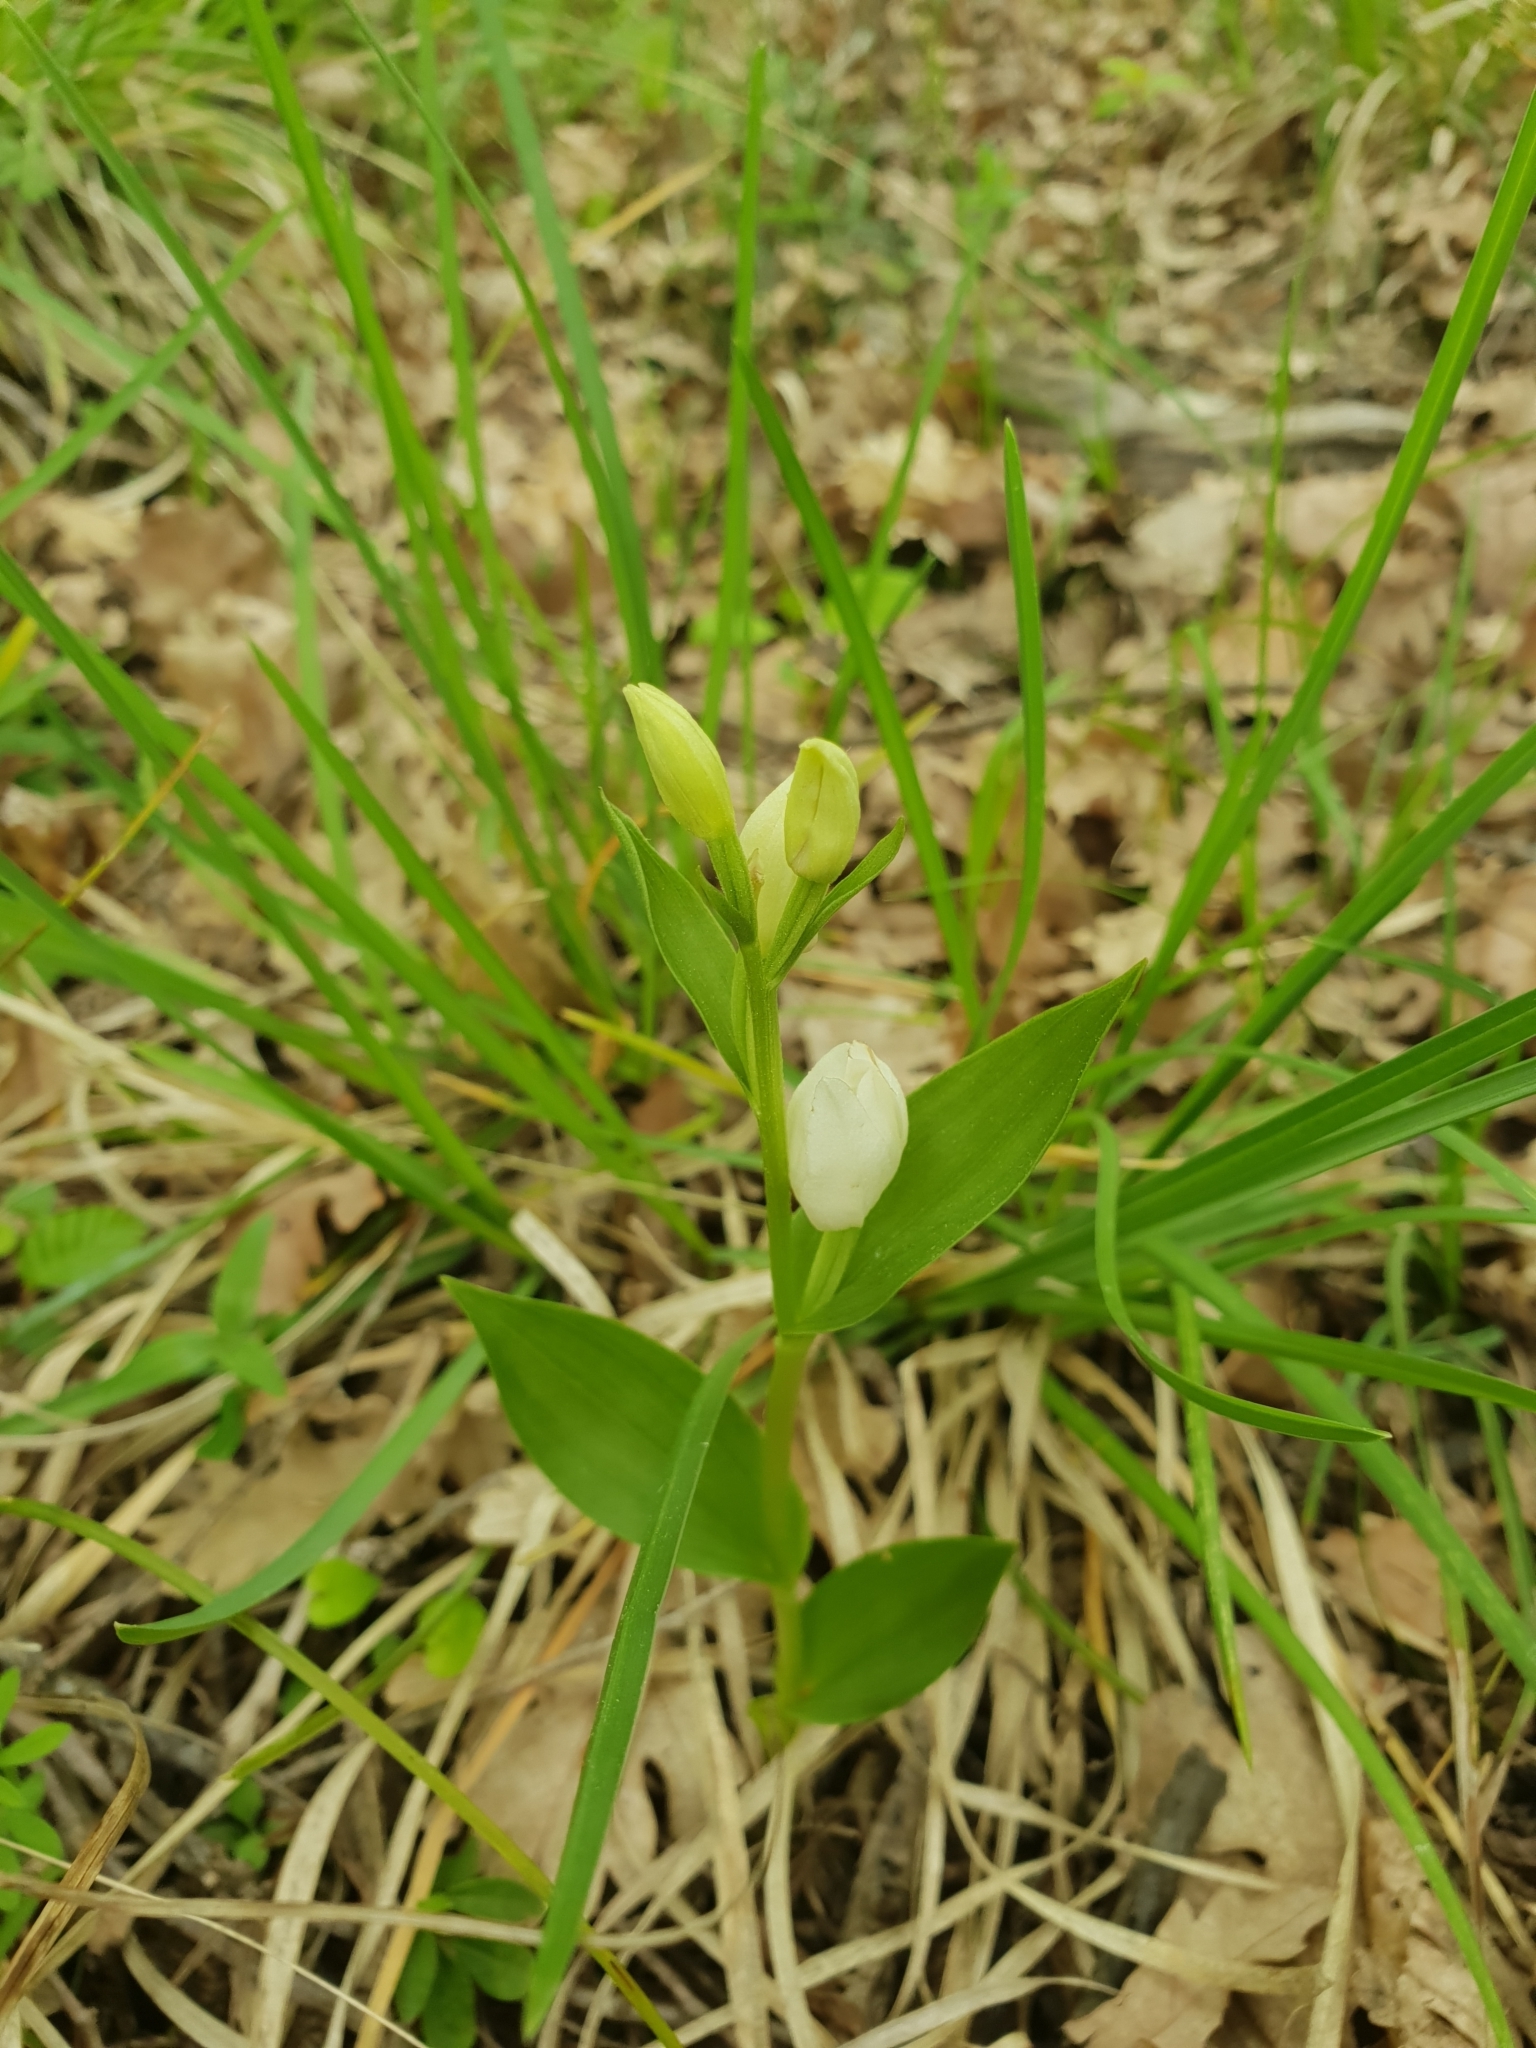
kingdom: Plantae
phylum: Tracheophyta
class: Liliopsida
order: Asparagales
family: Orchidaceae
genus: Cephalanthera
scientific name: Cephalanthera damasonium
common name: White helleborine
